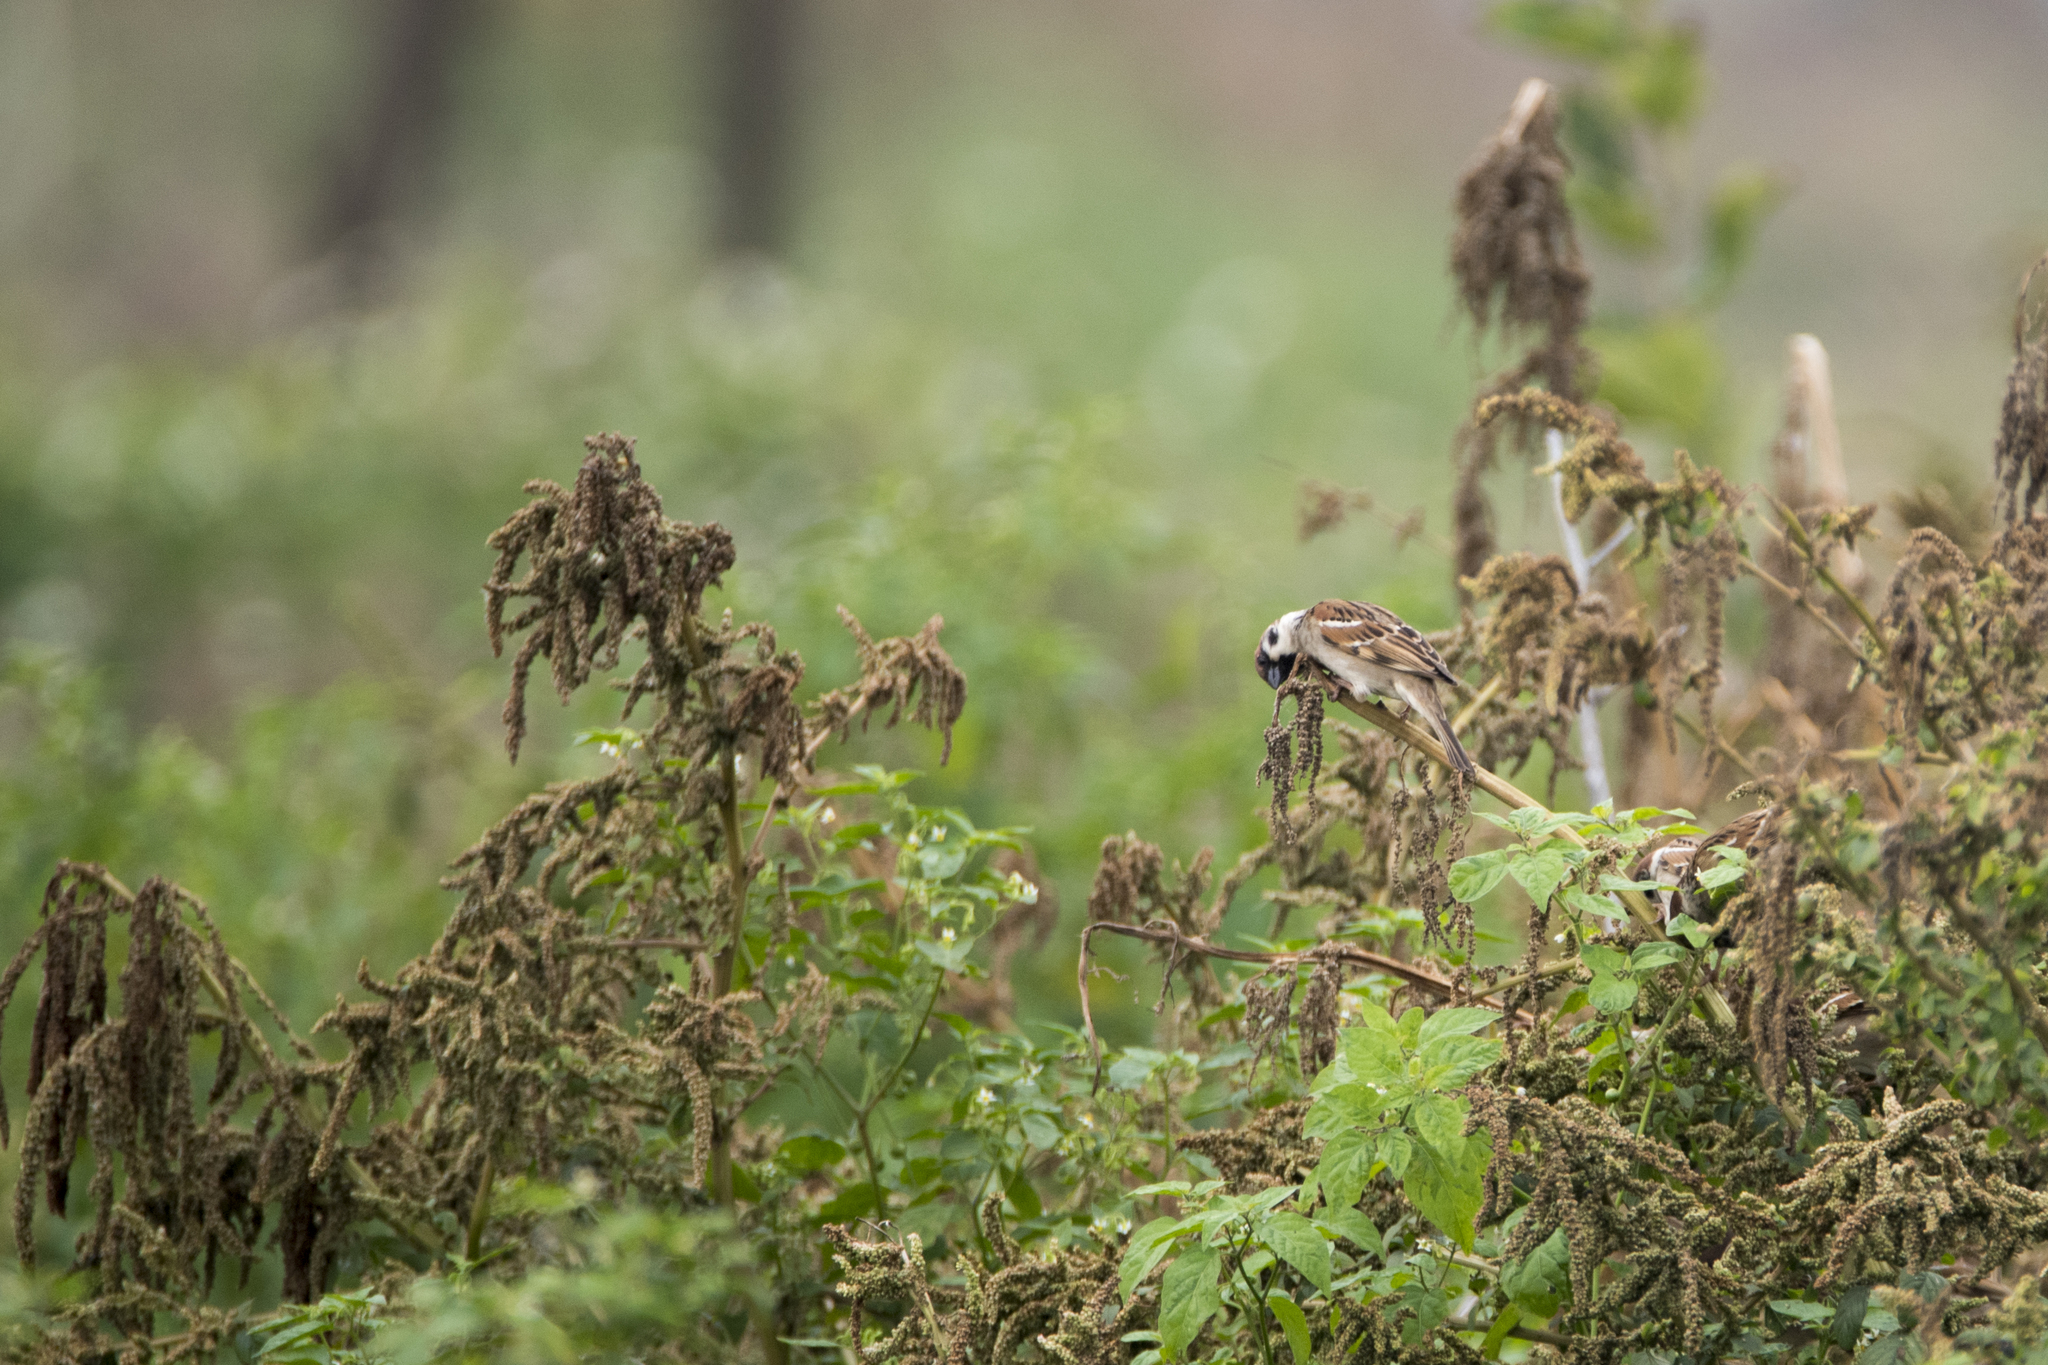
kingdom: Animalia
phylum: Chordata
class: Aves
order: Passeriformes
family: Passeridae
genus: Passer
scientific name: Passer montanus
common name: Eurasian tree sparrow
